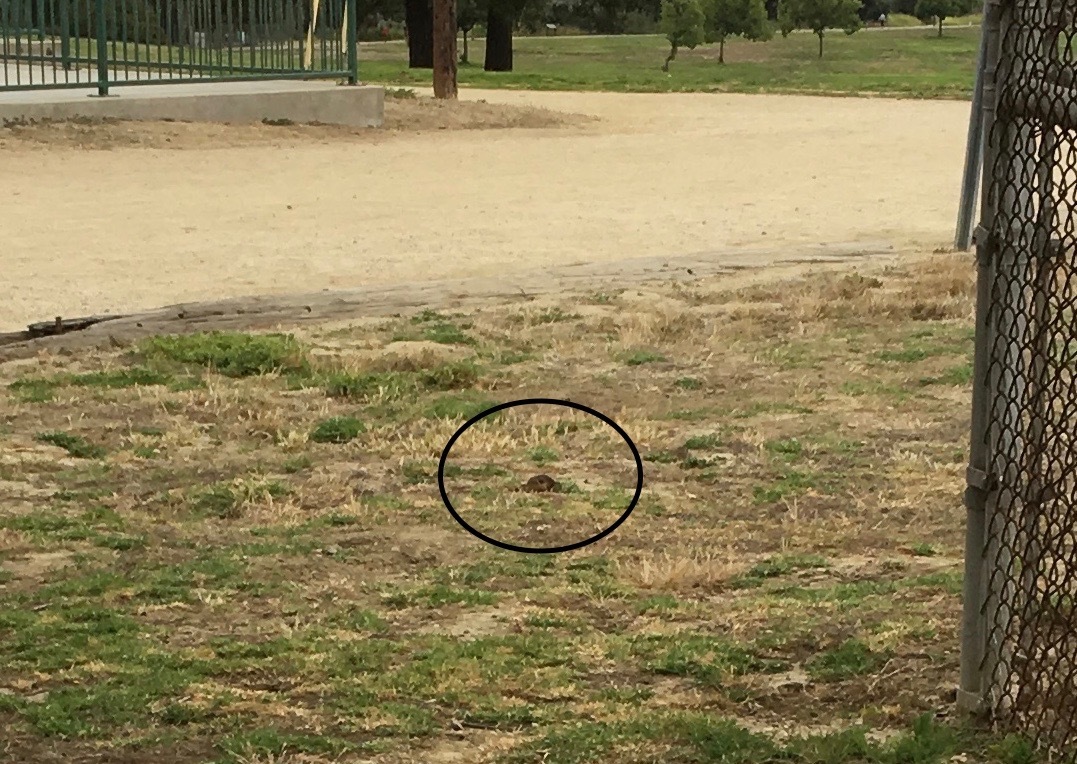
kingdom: Animalia
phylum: Chordata
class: Mammalia
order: Rodentia
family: Geomyidae
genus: Thomomys
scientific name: Thomomys bottae
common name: Botta's pocket gopher
